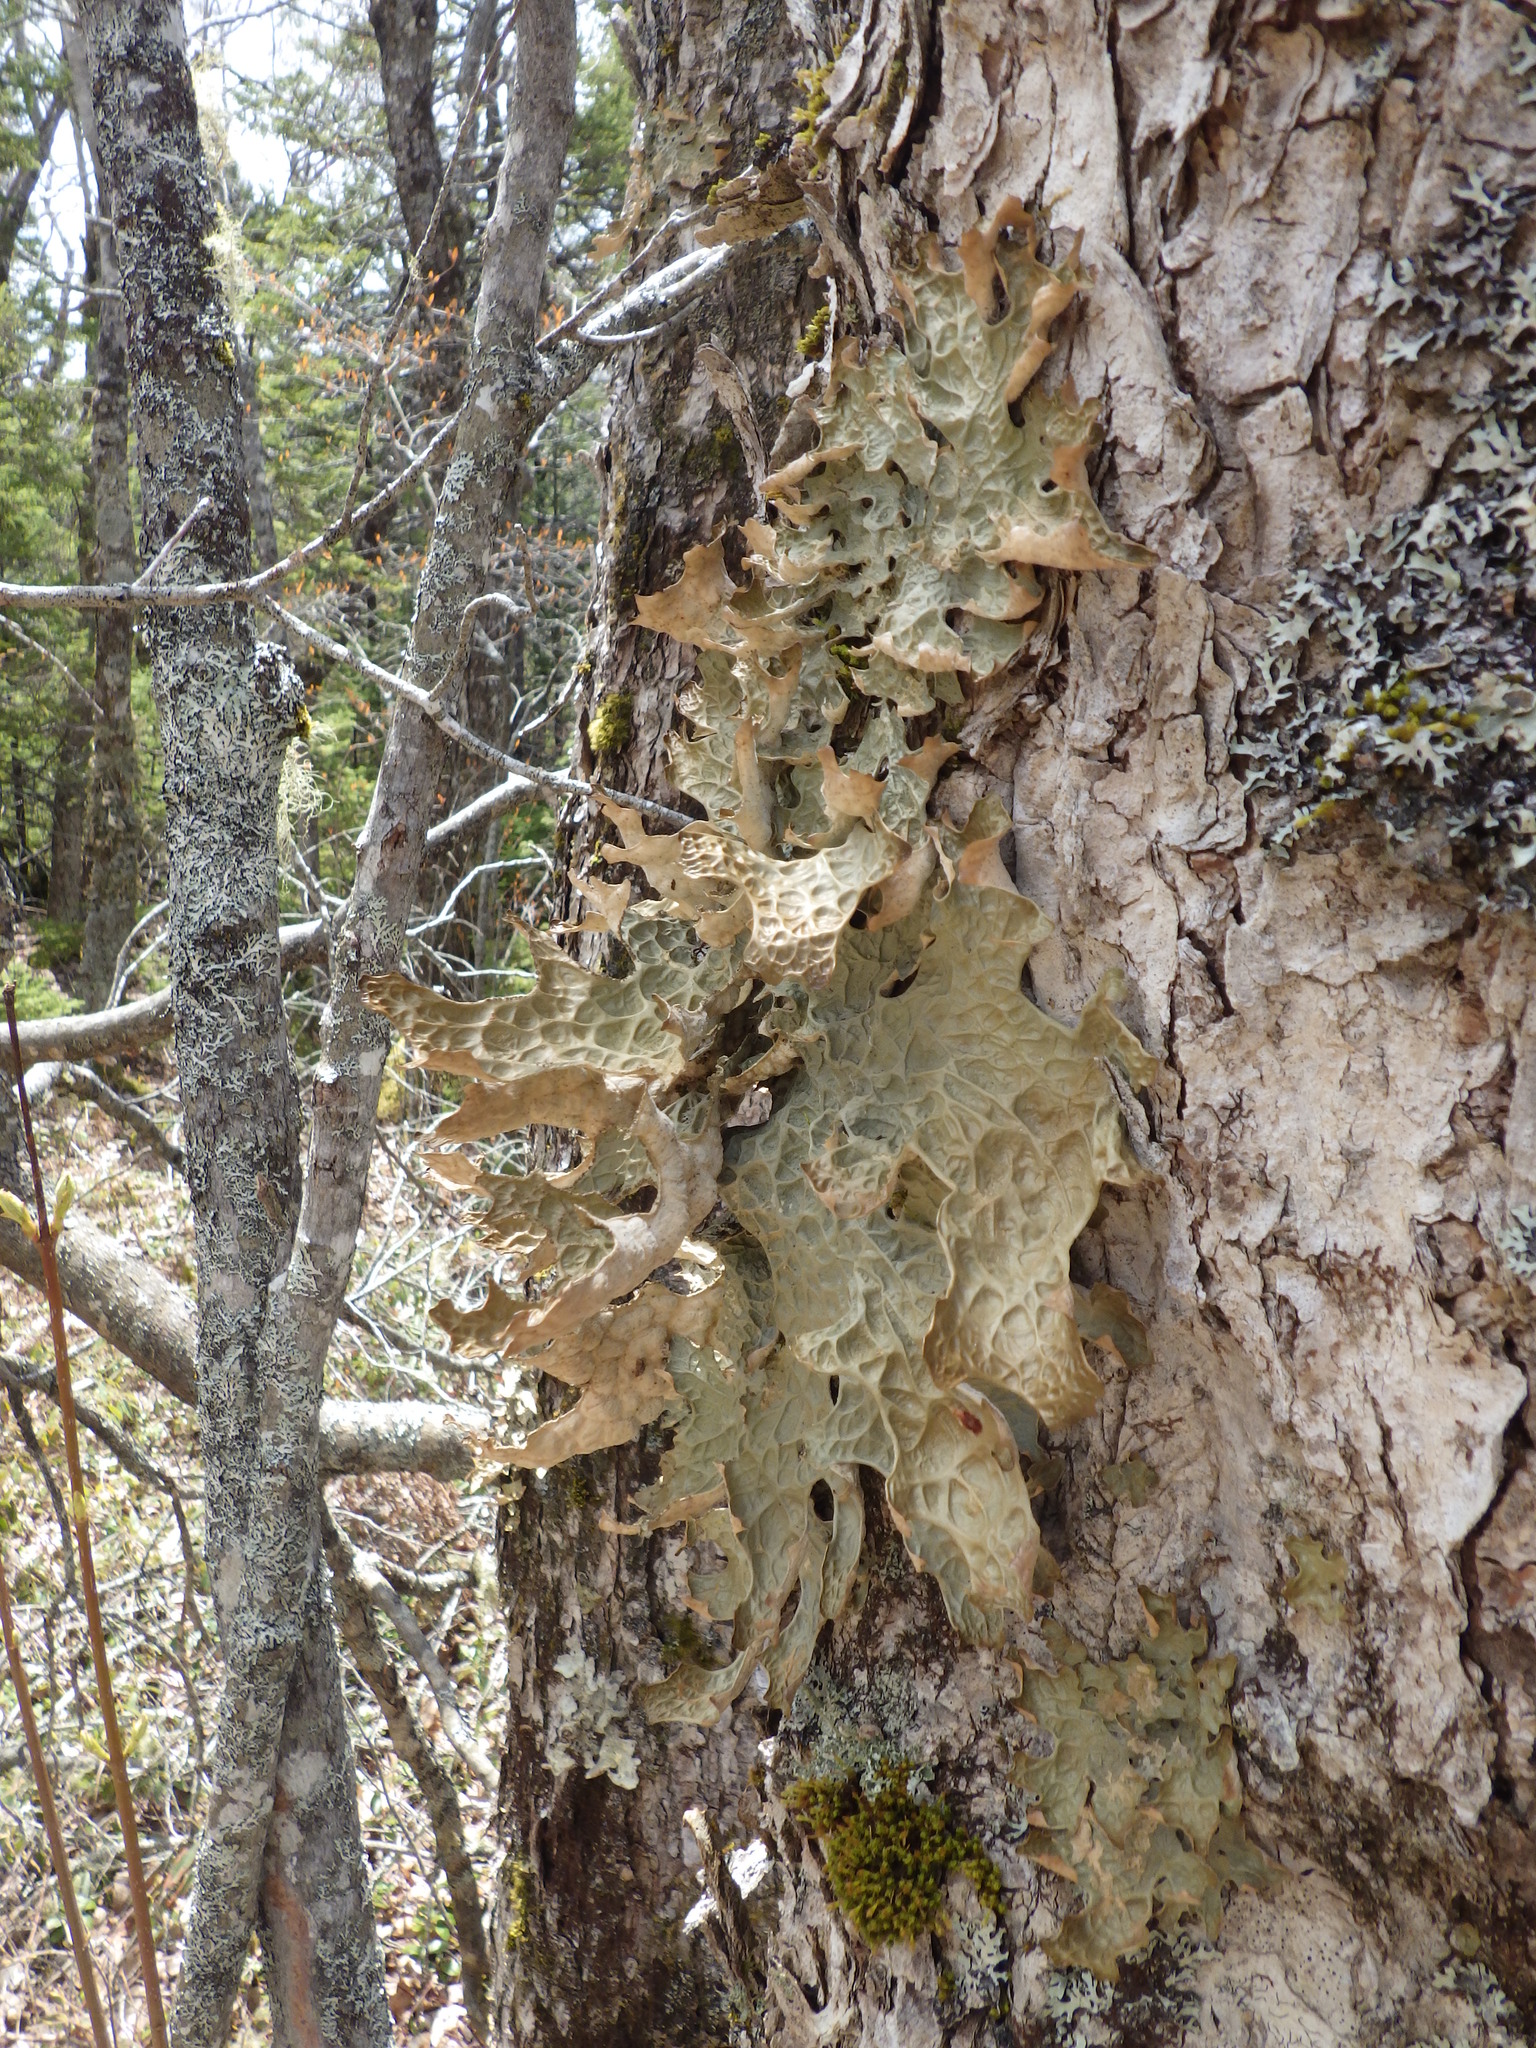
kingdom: Fungi
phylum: Ascomycota
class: Lecanoromycetes
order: Peltigerales
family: Lobariaceae
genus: Lobaria
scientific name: Lobaria pulmonaria
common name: Lungwort
